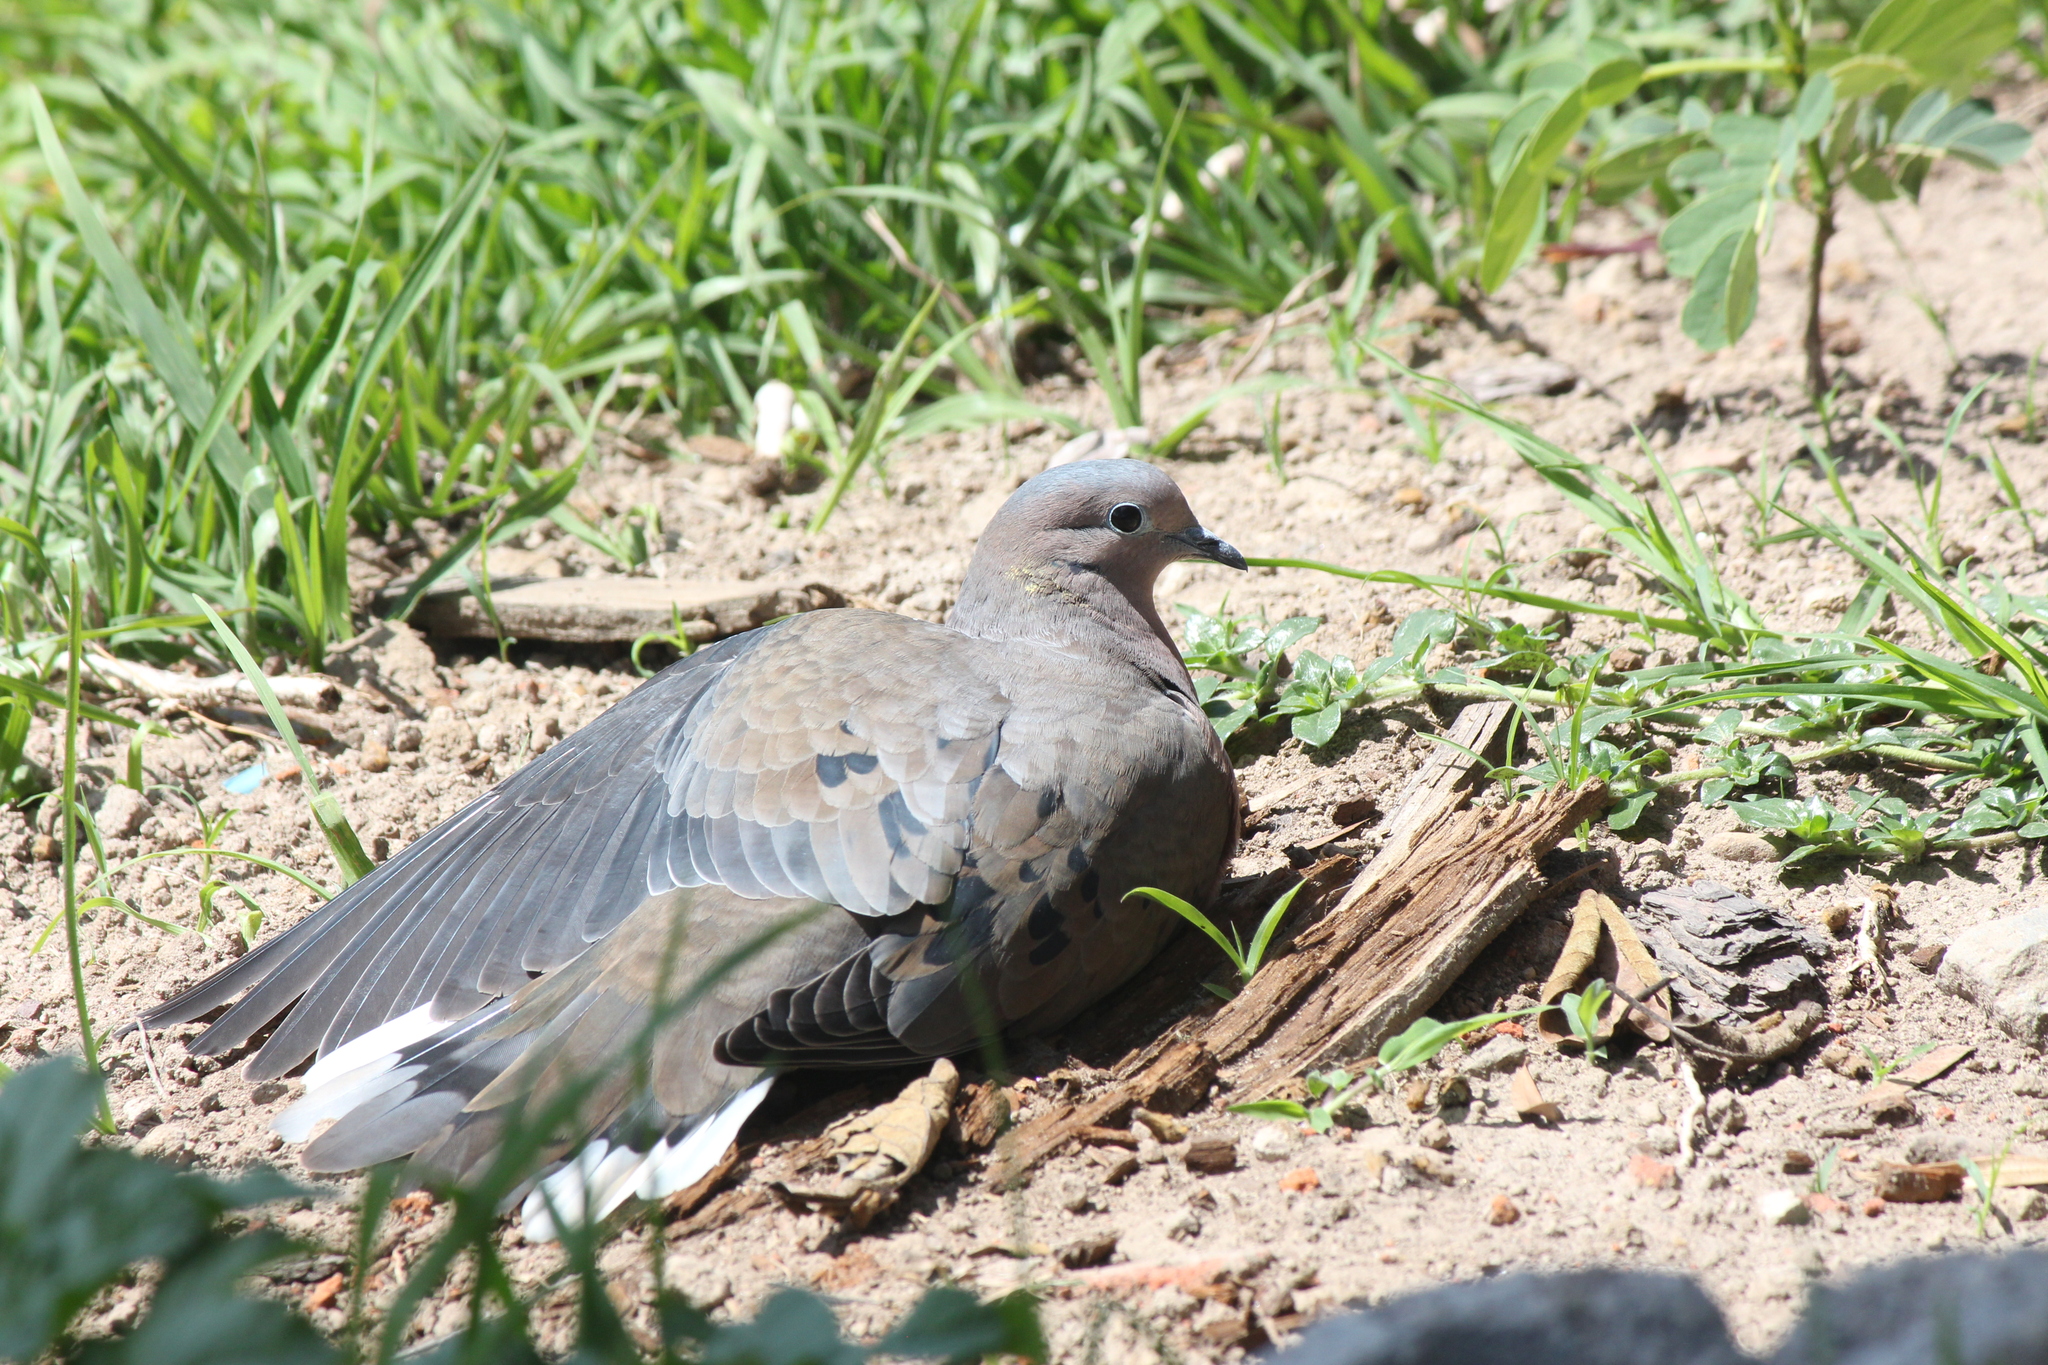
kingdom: Animalia
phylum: Chordata
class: Aves
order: Columbiformes
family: Columbidae
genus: Zenaida
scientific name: Zenaida auriculata
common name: Eared dove
